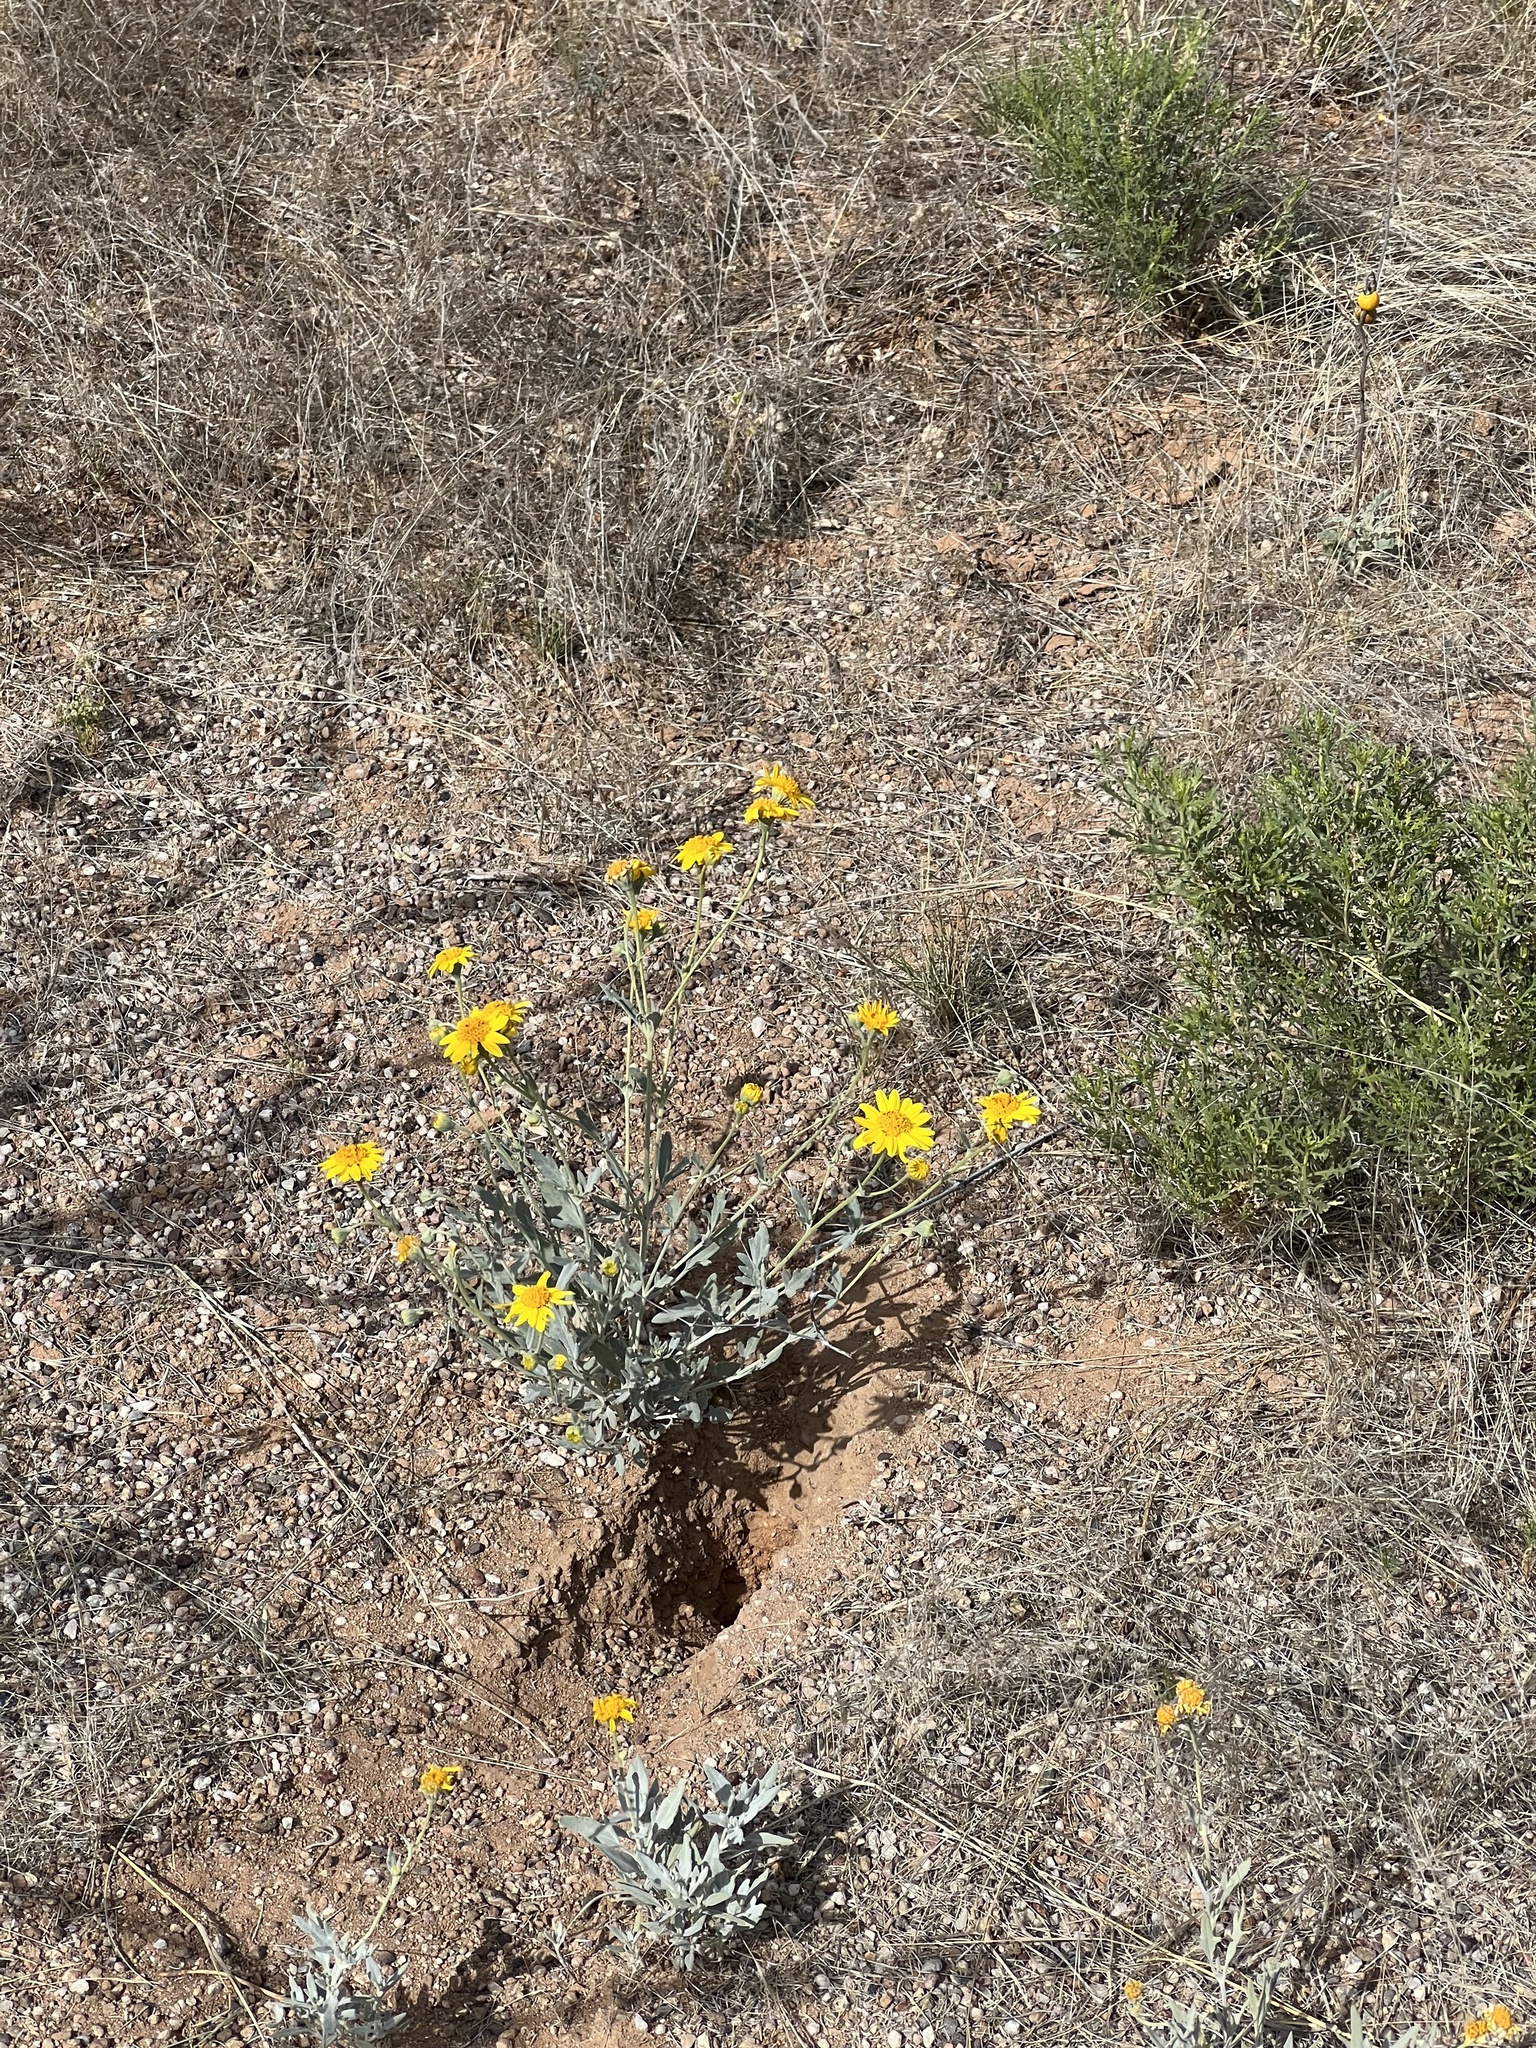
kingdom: Plantae
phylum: Tracheophyta
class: Magnoliopsida
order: Asterales
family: Asteraceae
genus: Picradeniopsis
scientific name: Picradeniopsis absinthifolia
